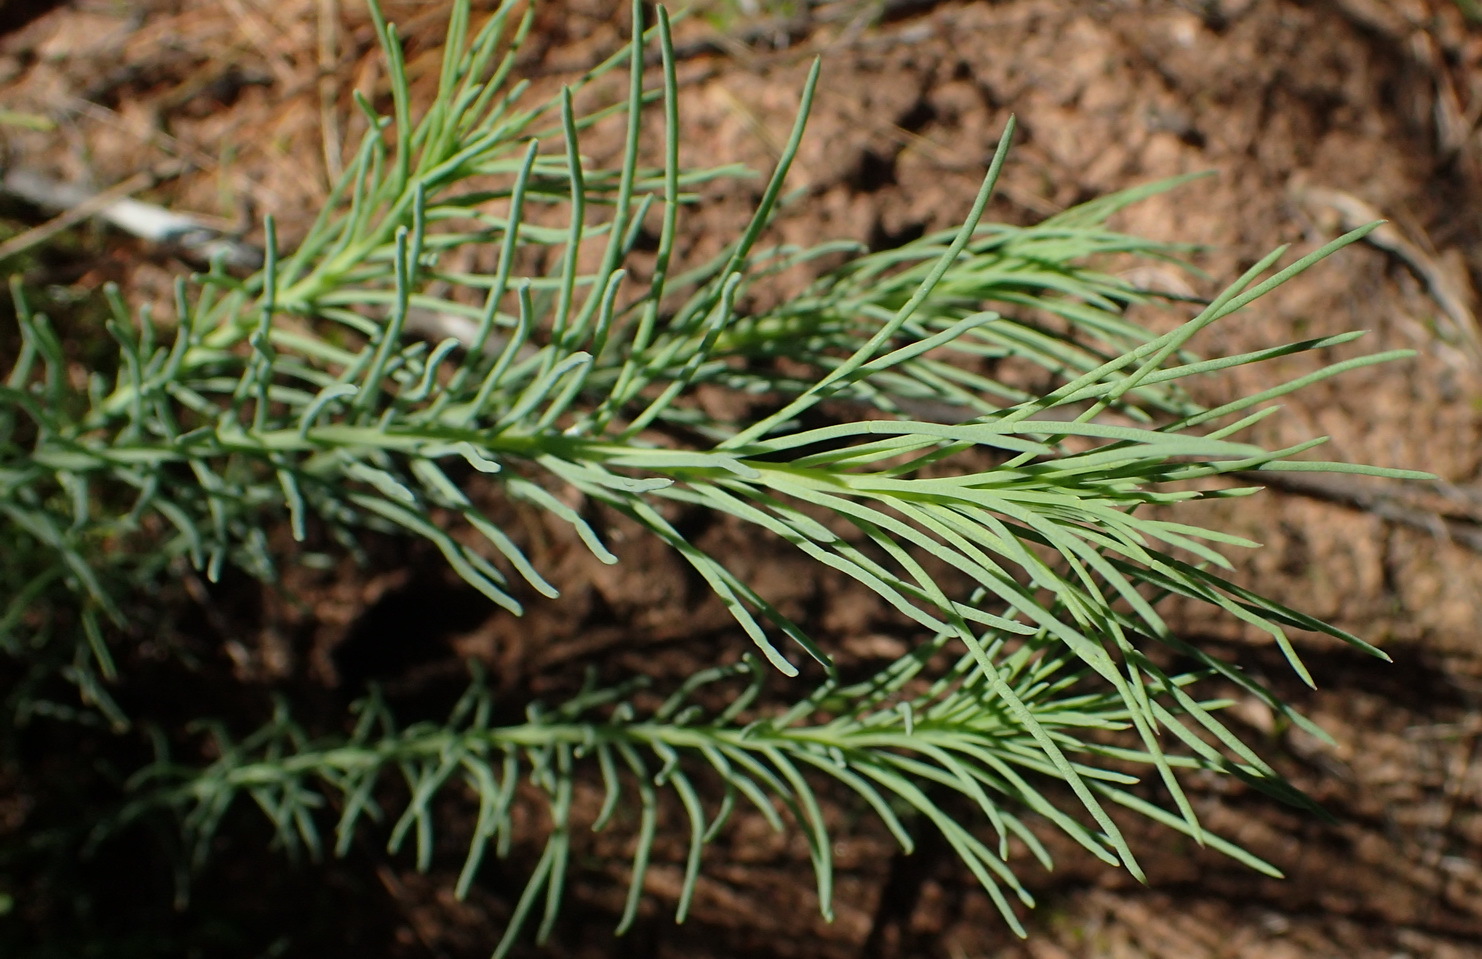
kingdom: Plantae
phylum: Tracheophyta
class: Magnoliopsida
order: Fabales
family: Fabaceae
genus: Lebeckia
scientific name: Lebeckia gracilis
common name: Slender ganna
